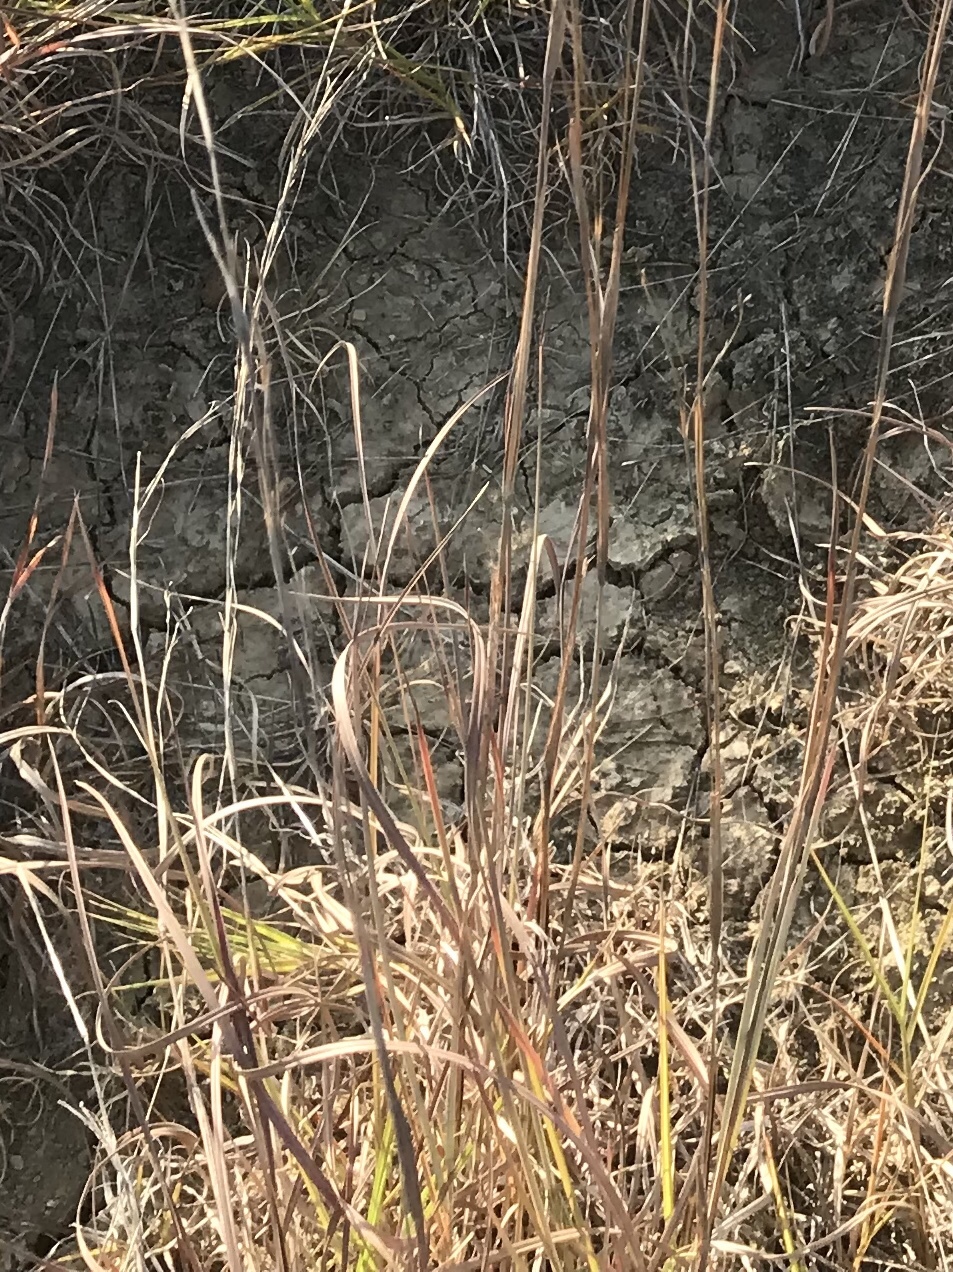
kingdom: Plantae
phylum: Tracheophyta
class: Liliopsida
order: Poales
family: Poaceae
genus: Schizachyrium
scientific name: Schizachyrium scoparium
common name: Little bluestem
